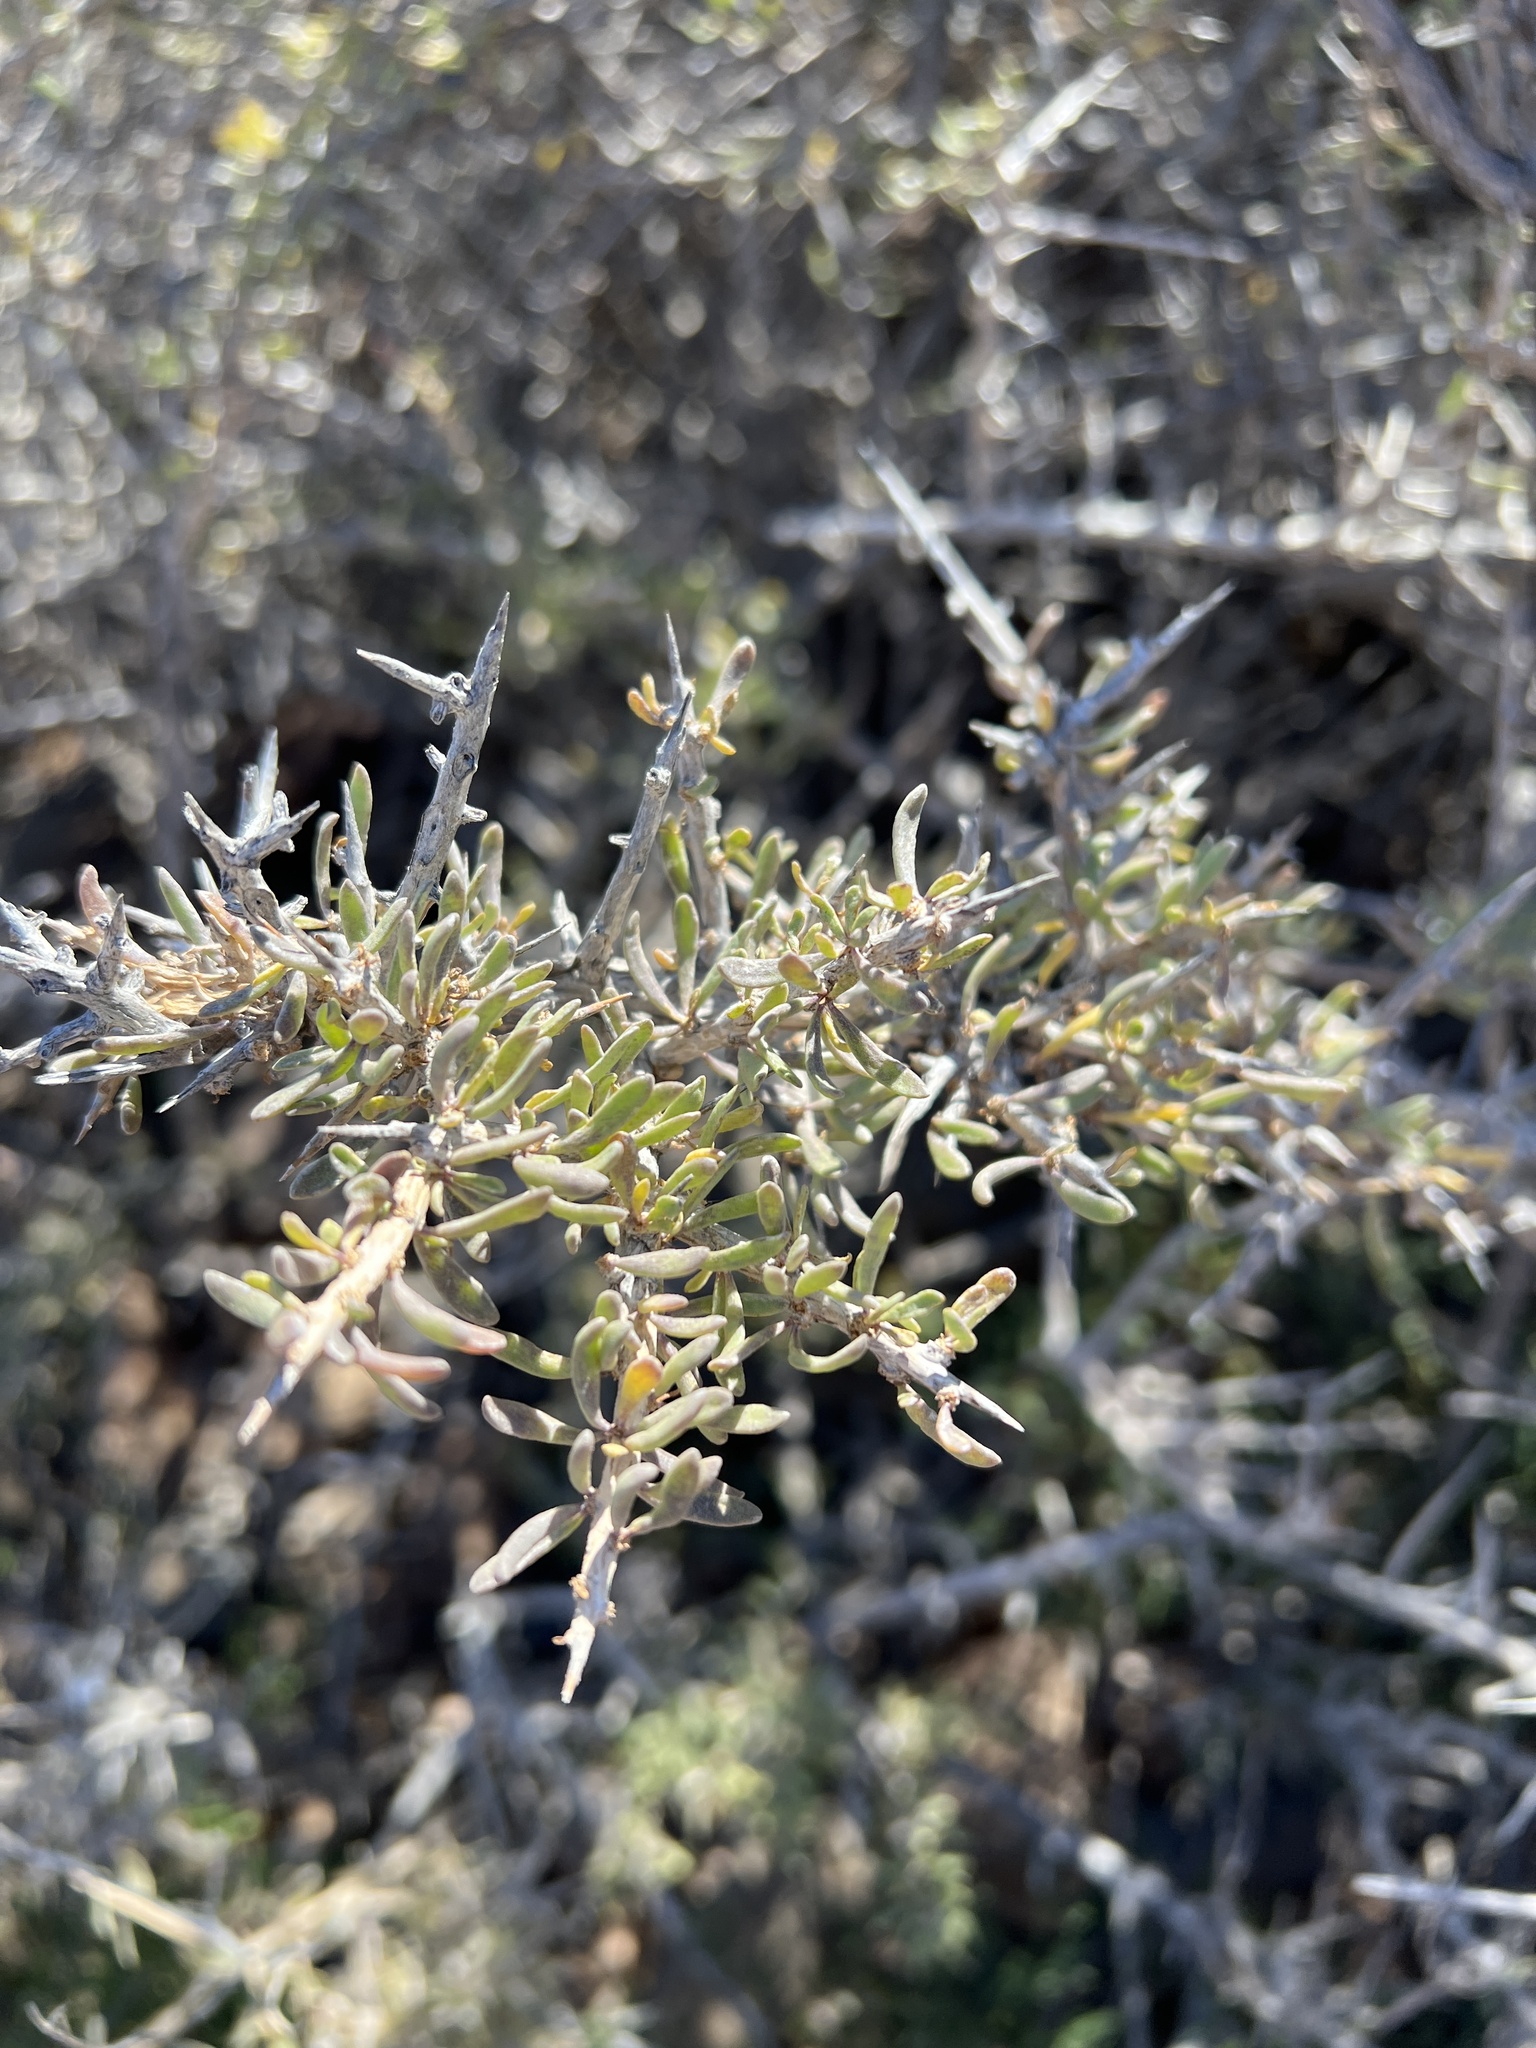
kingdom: Plantae
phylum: Tracheophyta
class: Magnoliopsida
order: Solanales
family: Solanaceae
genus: Lycium
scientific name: Lycium intricatum
